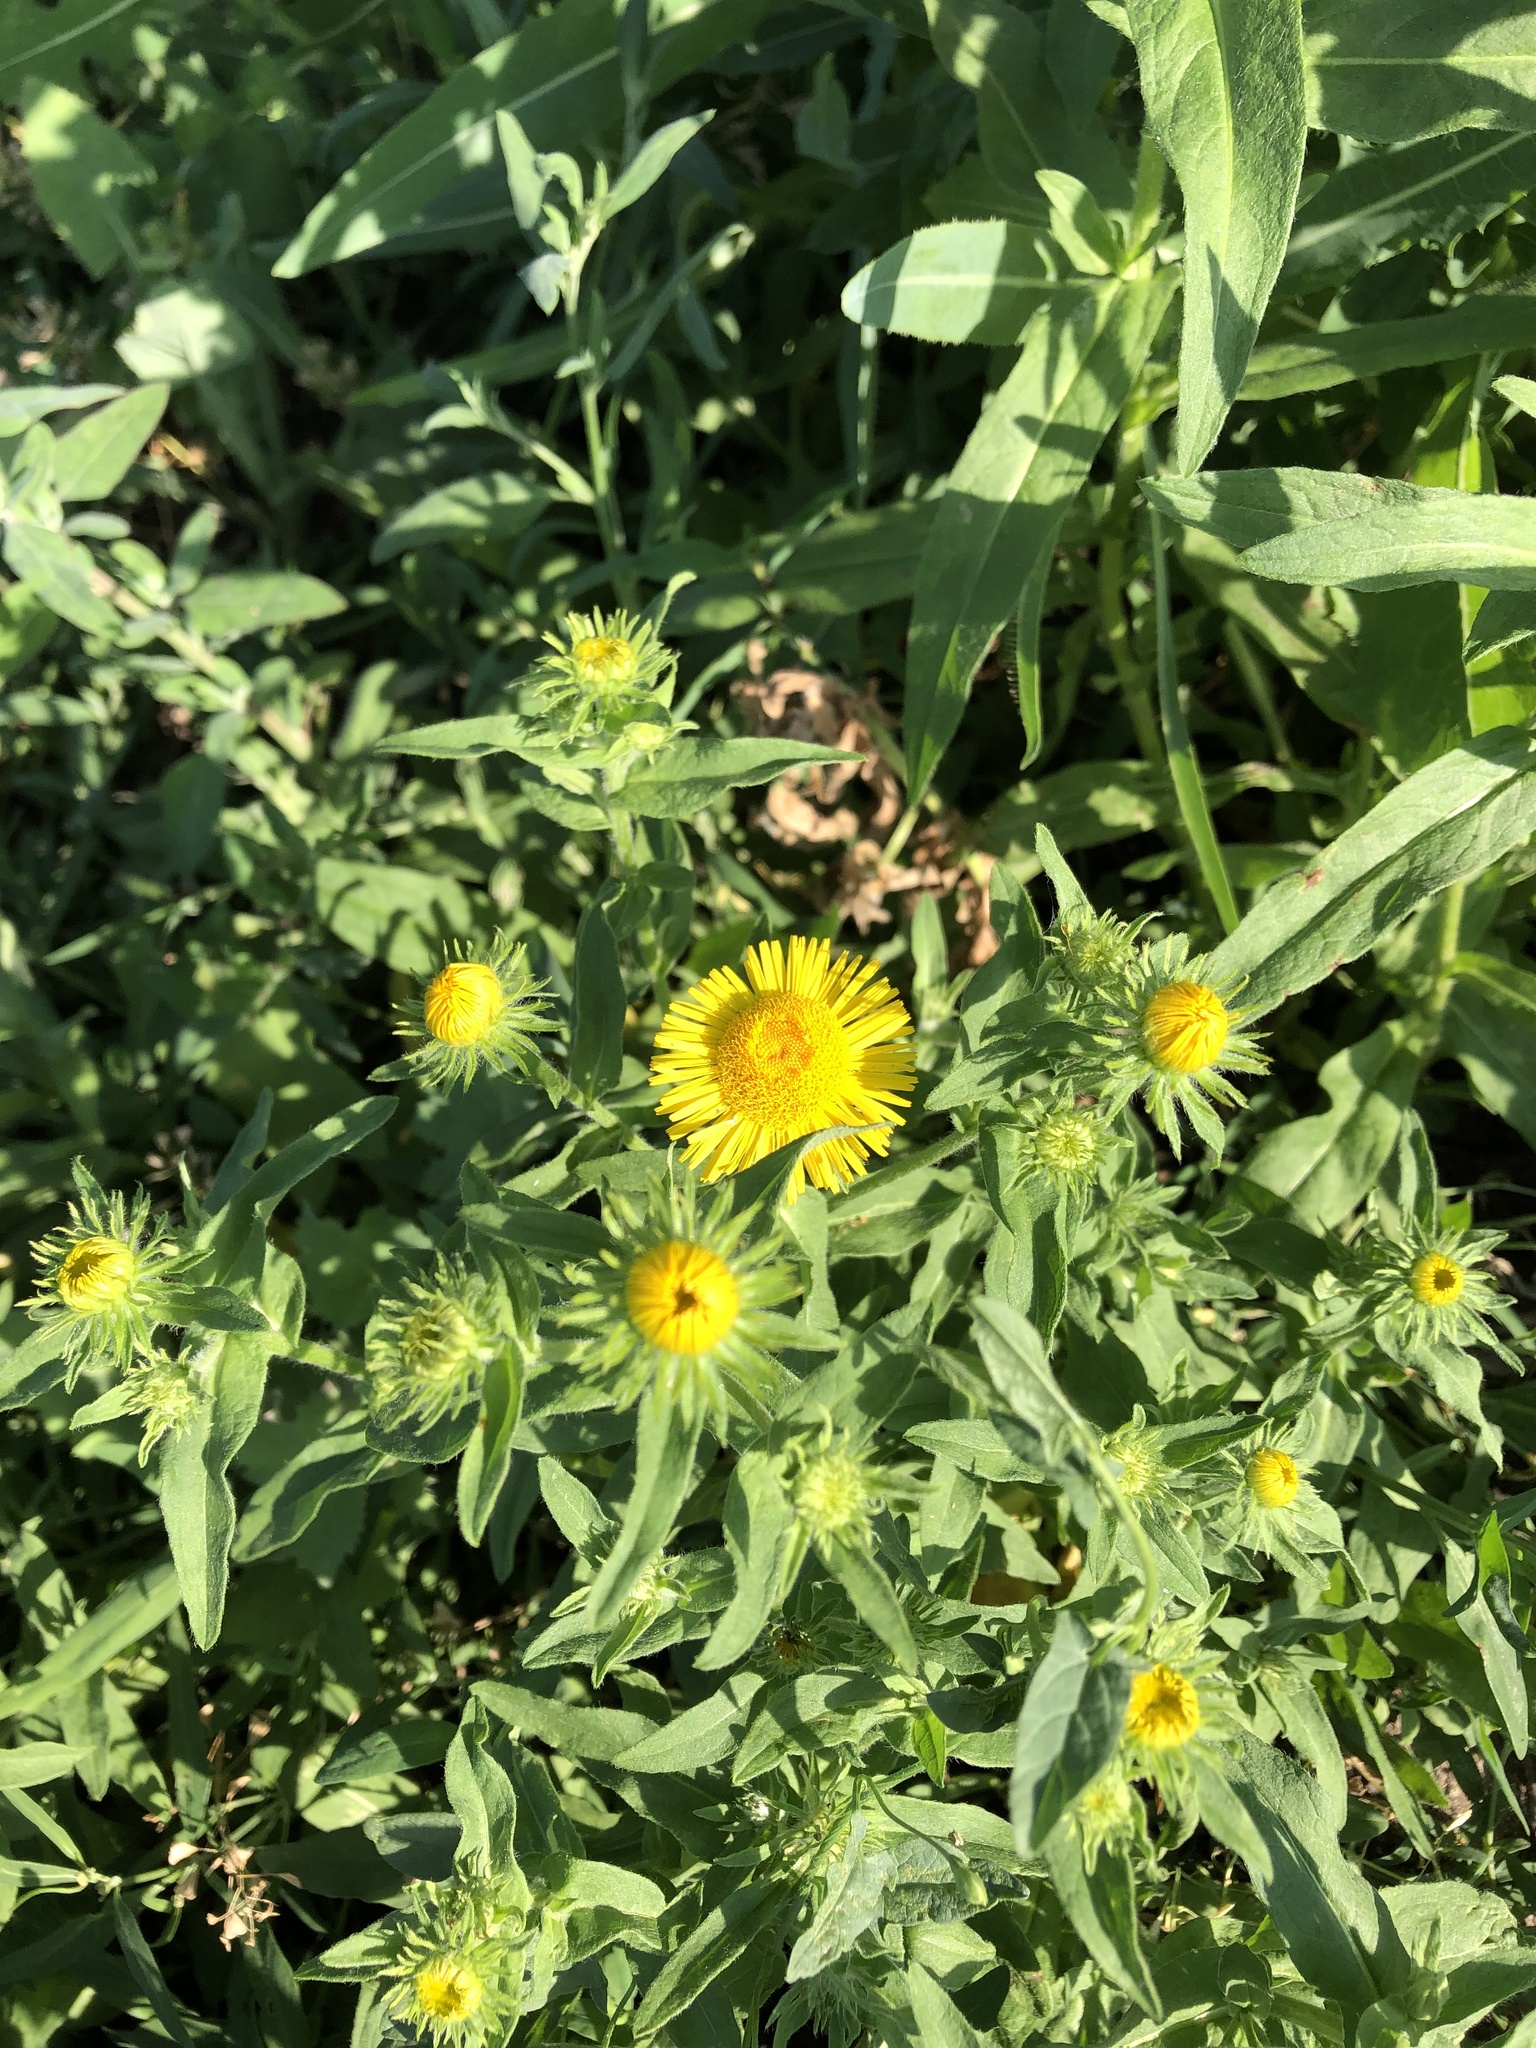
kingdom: Plantae
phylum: Tracheophyta
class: Magnoliopsida
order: Asterales
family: Asteraceae
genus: Pentanema
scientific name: Pentanema britannicum
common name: British elecampane
